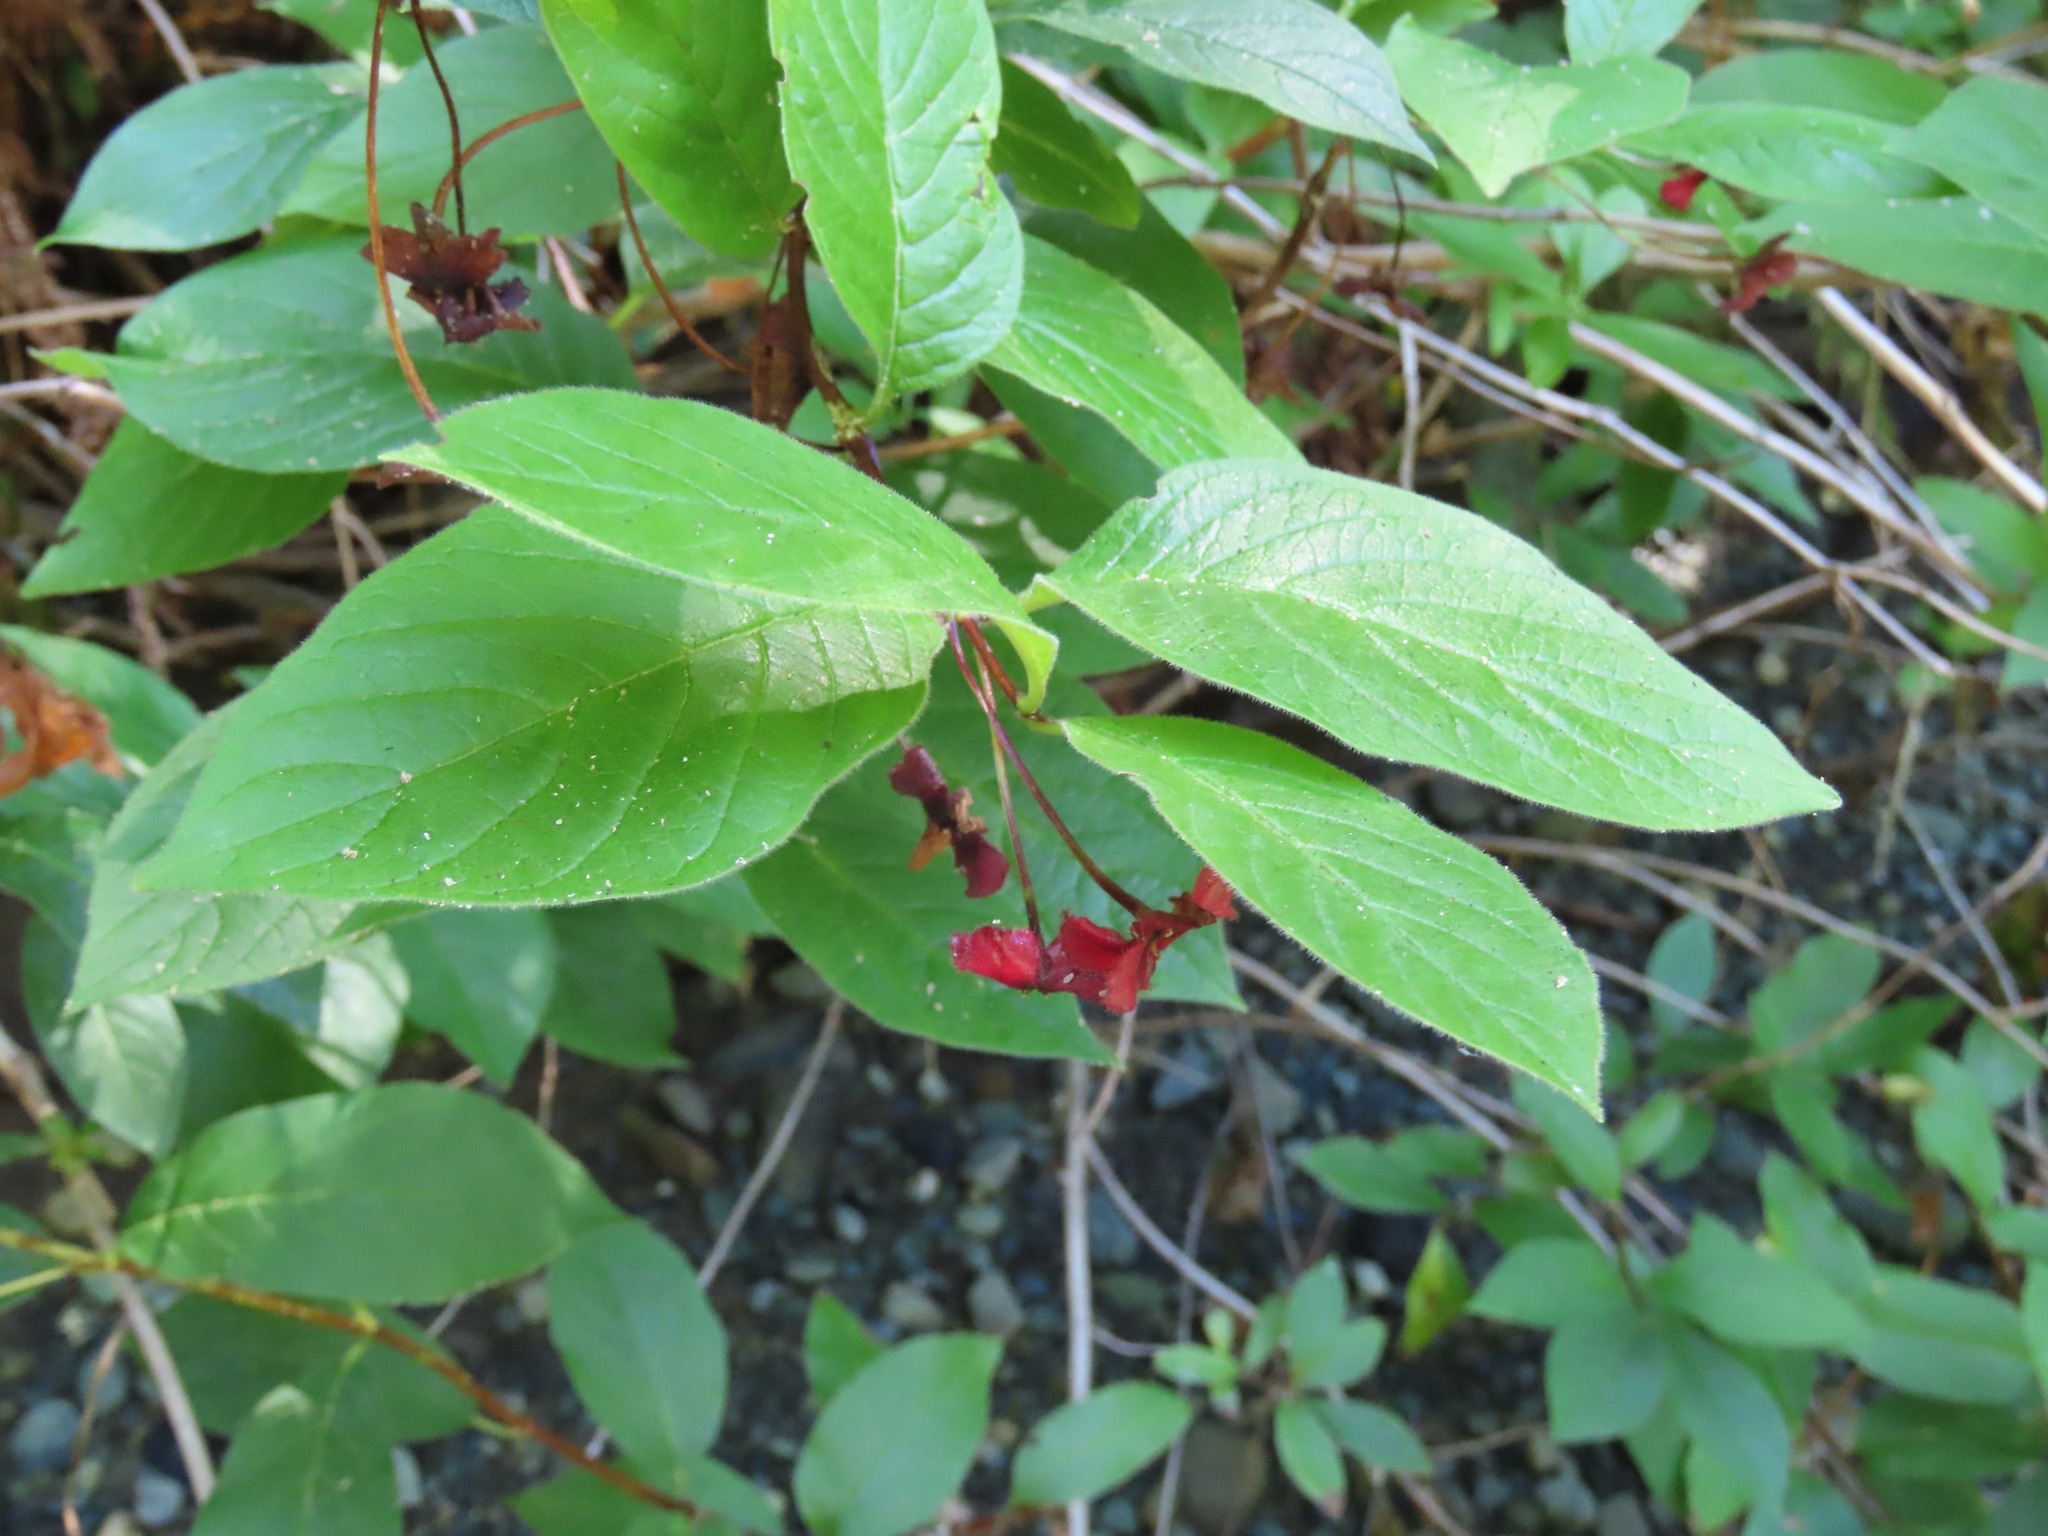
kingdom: Plantae
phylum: Tracheophyta
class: Magnoliopsida
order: Dipsacales
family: Caprifoliaceae
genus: Lonicera
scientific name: Lonicera involucrata
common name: Californian honeysuckle
